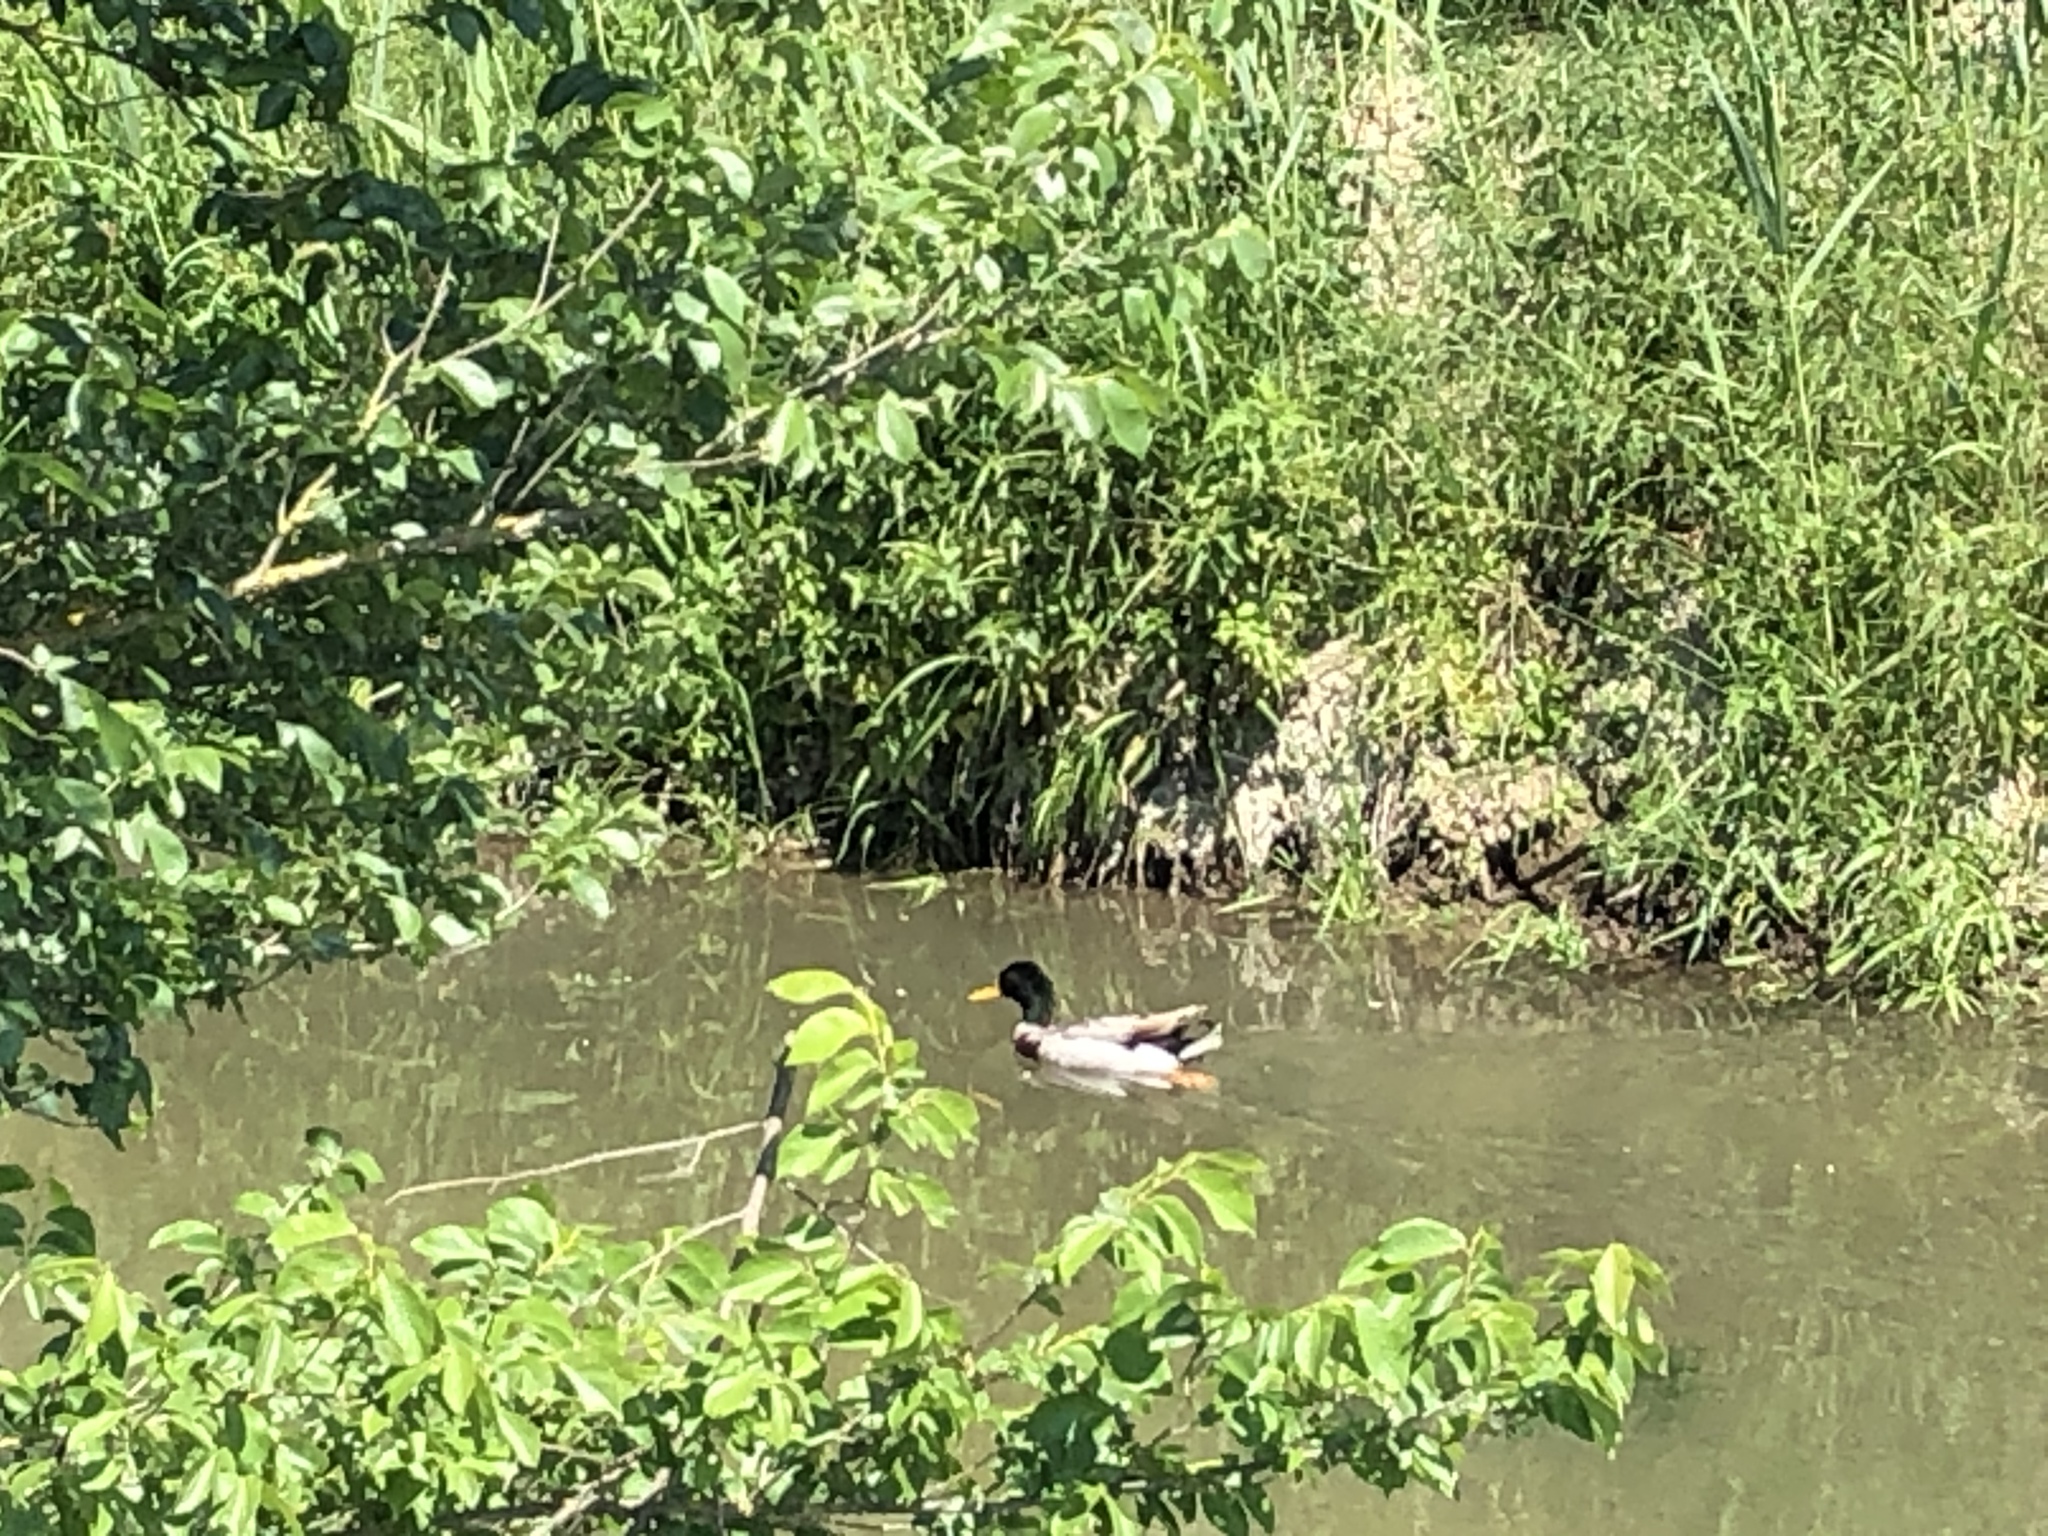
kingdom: Animalia
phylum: Chordata
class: Aves
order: Anseriformes
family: Anatidae
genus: Anas
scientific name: Anas platyrhynchos
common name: Mallard
